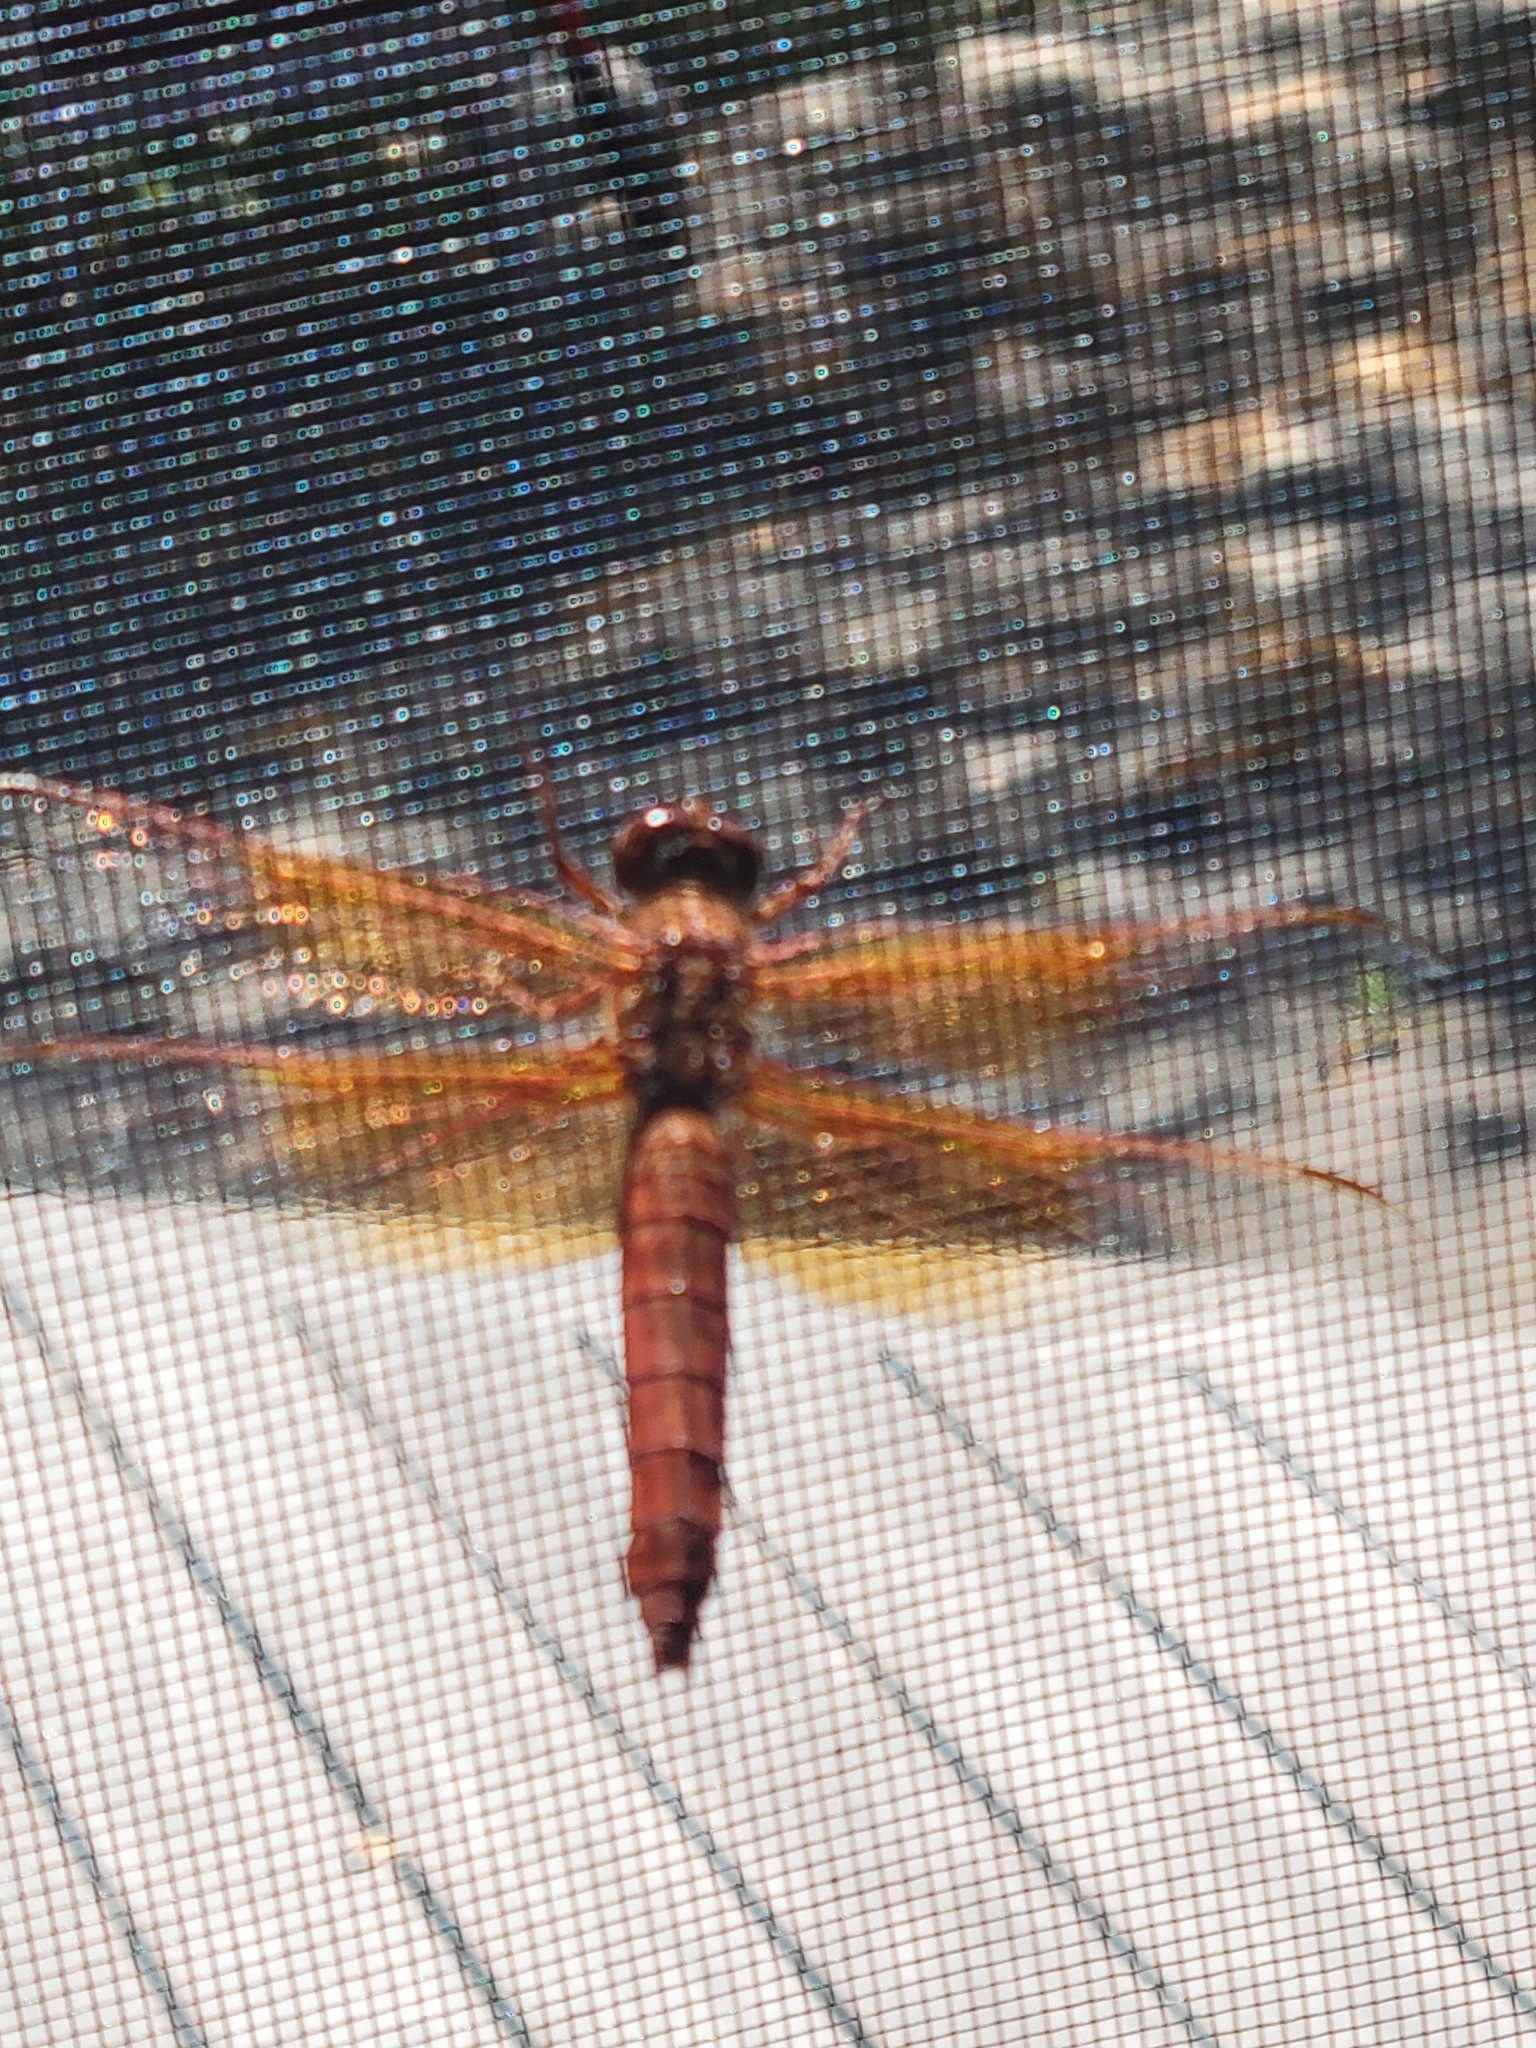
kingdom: Animalia
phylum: Arthropoda
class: Insecta
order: Odonata
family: Libellulidae
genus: Libellula
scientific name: Libellula saturata
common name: Flame skimmer
